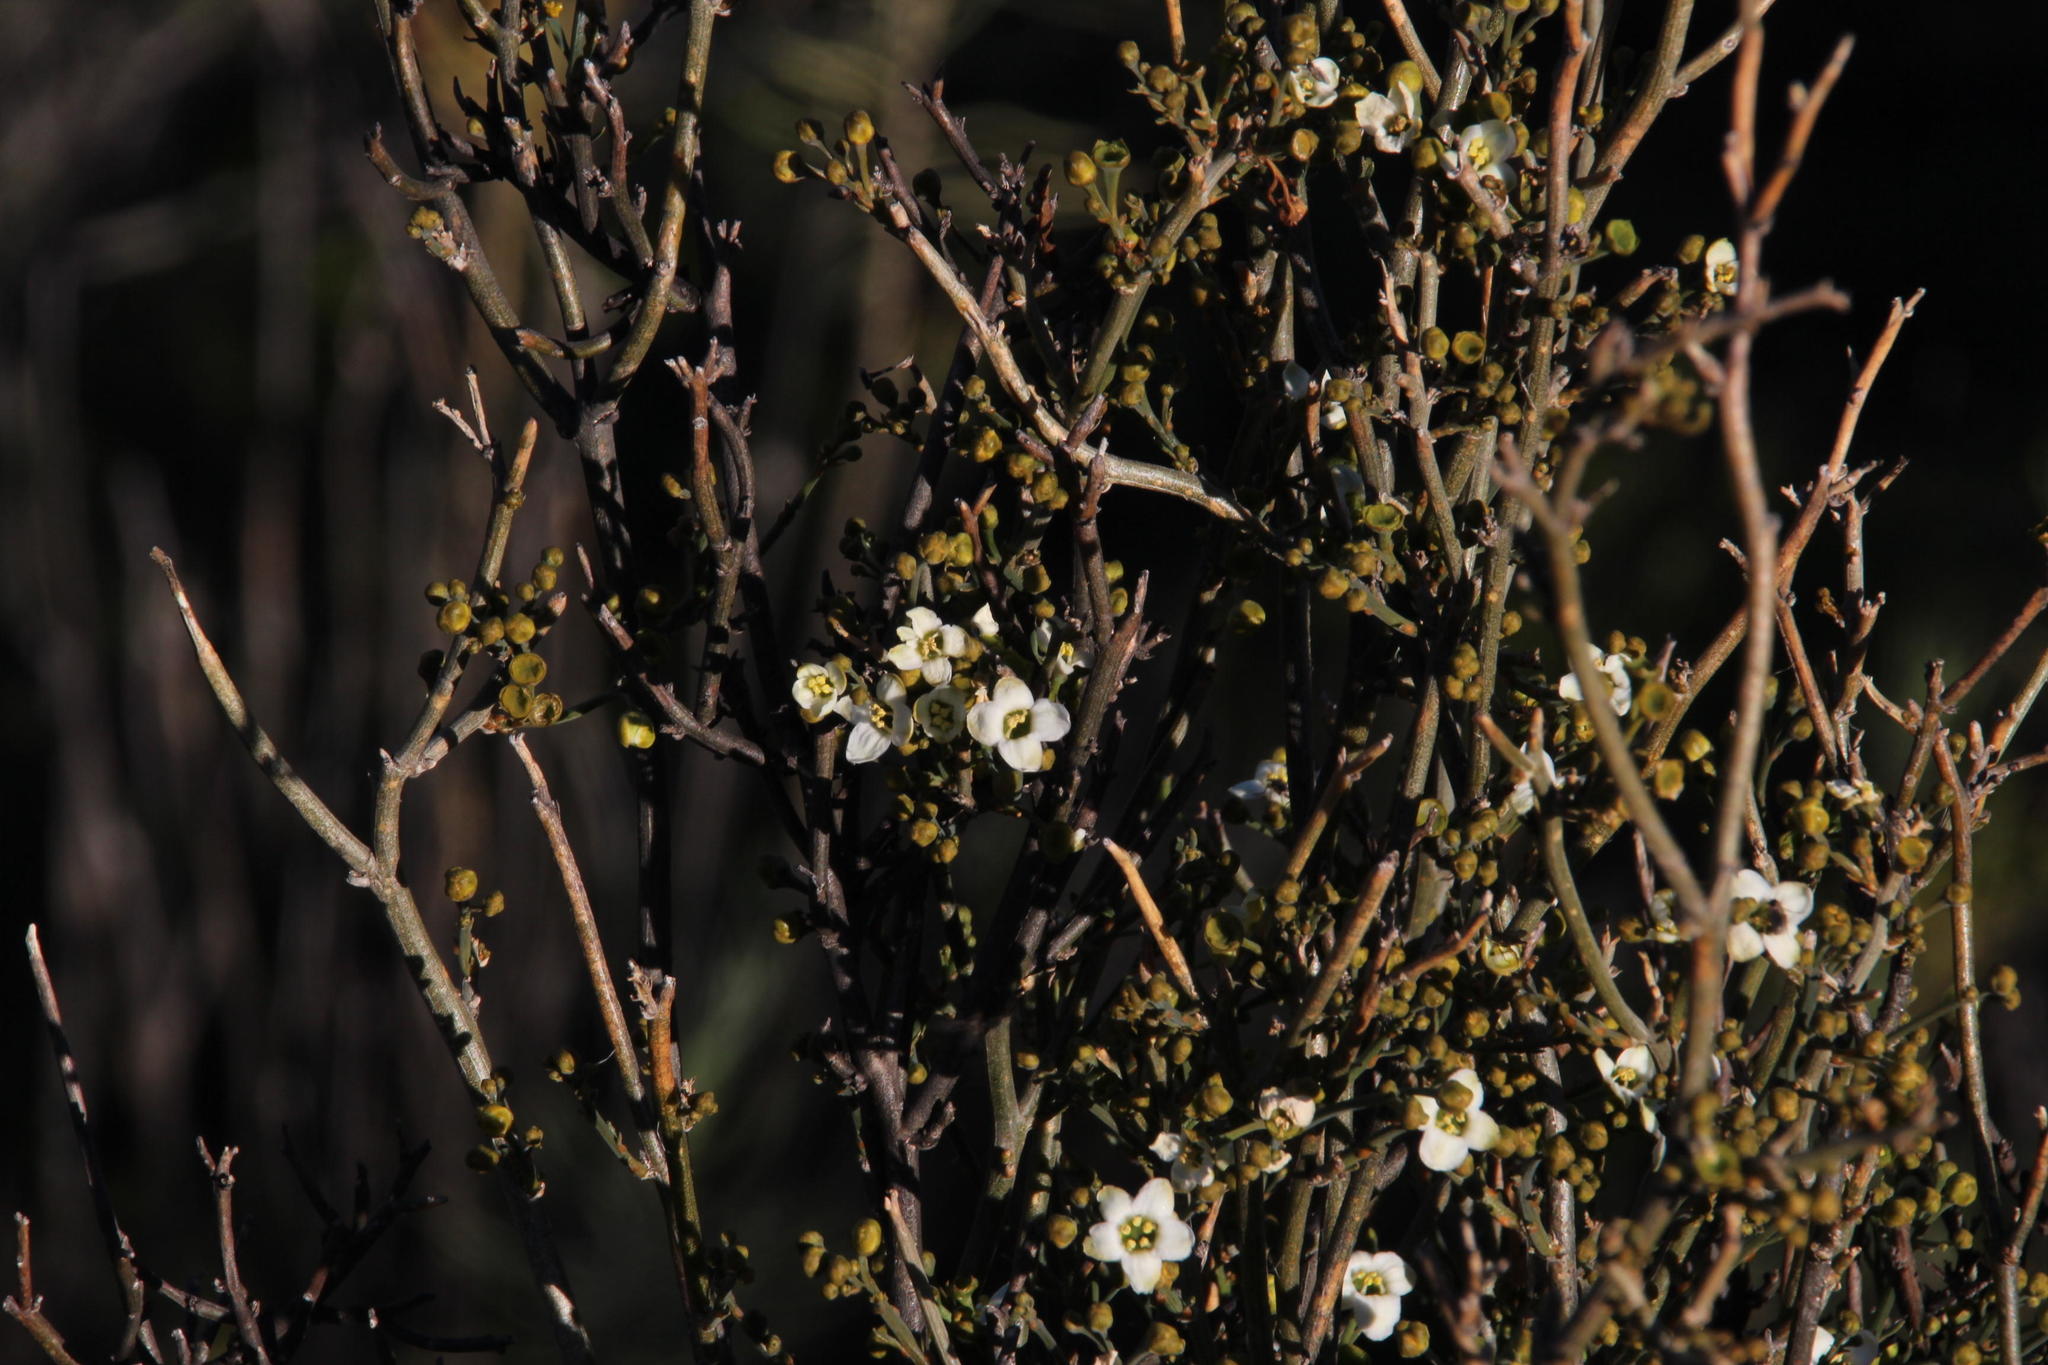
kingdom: Plantae
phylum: Tracheophyta
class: Magnoliopsida
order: Solanales
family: Montiniaceae
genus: Montinia
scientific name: Montinia caryophyllacea
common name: Wild clove-bush
